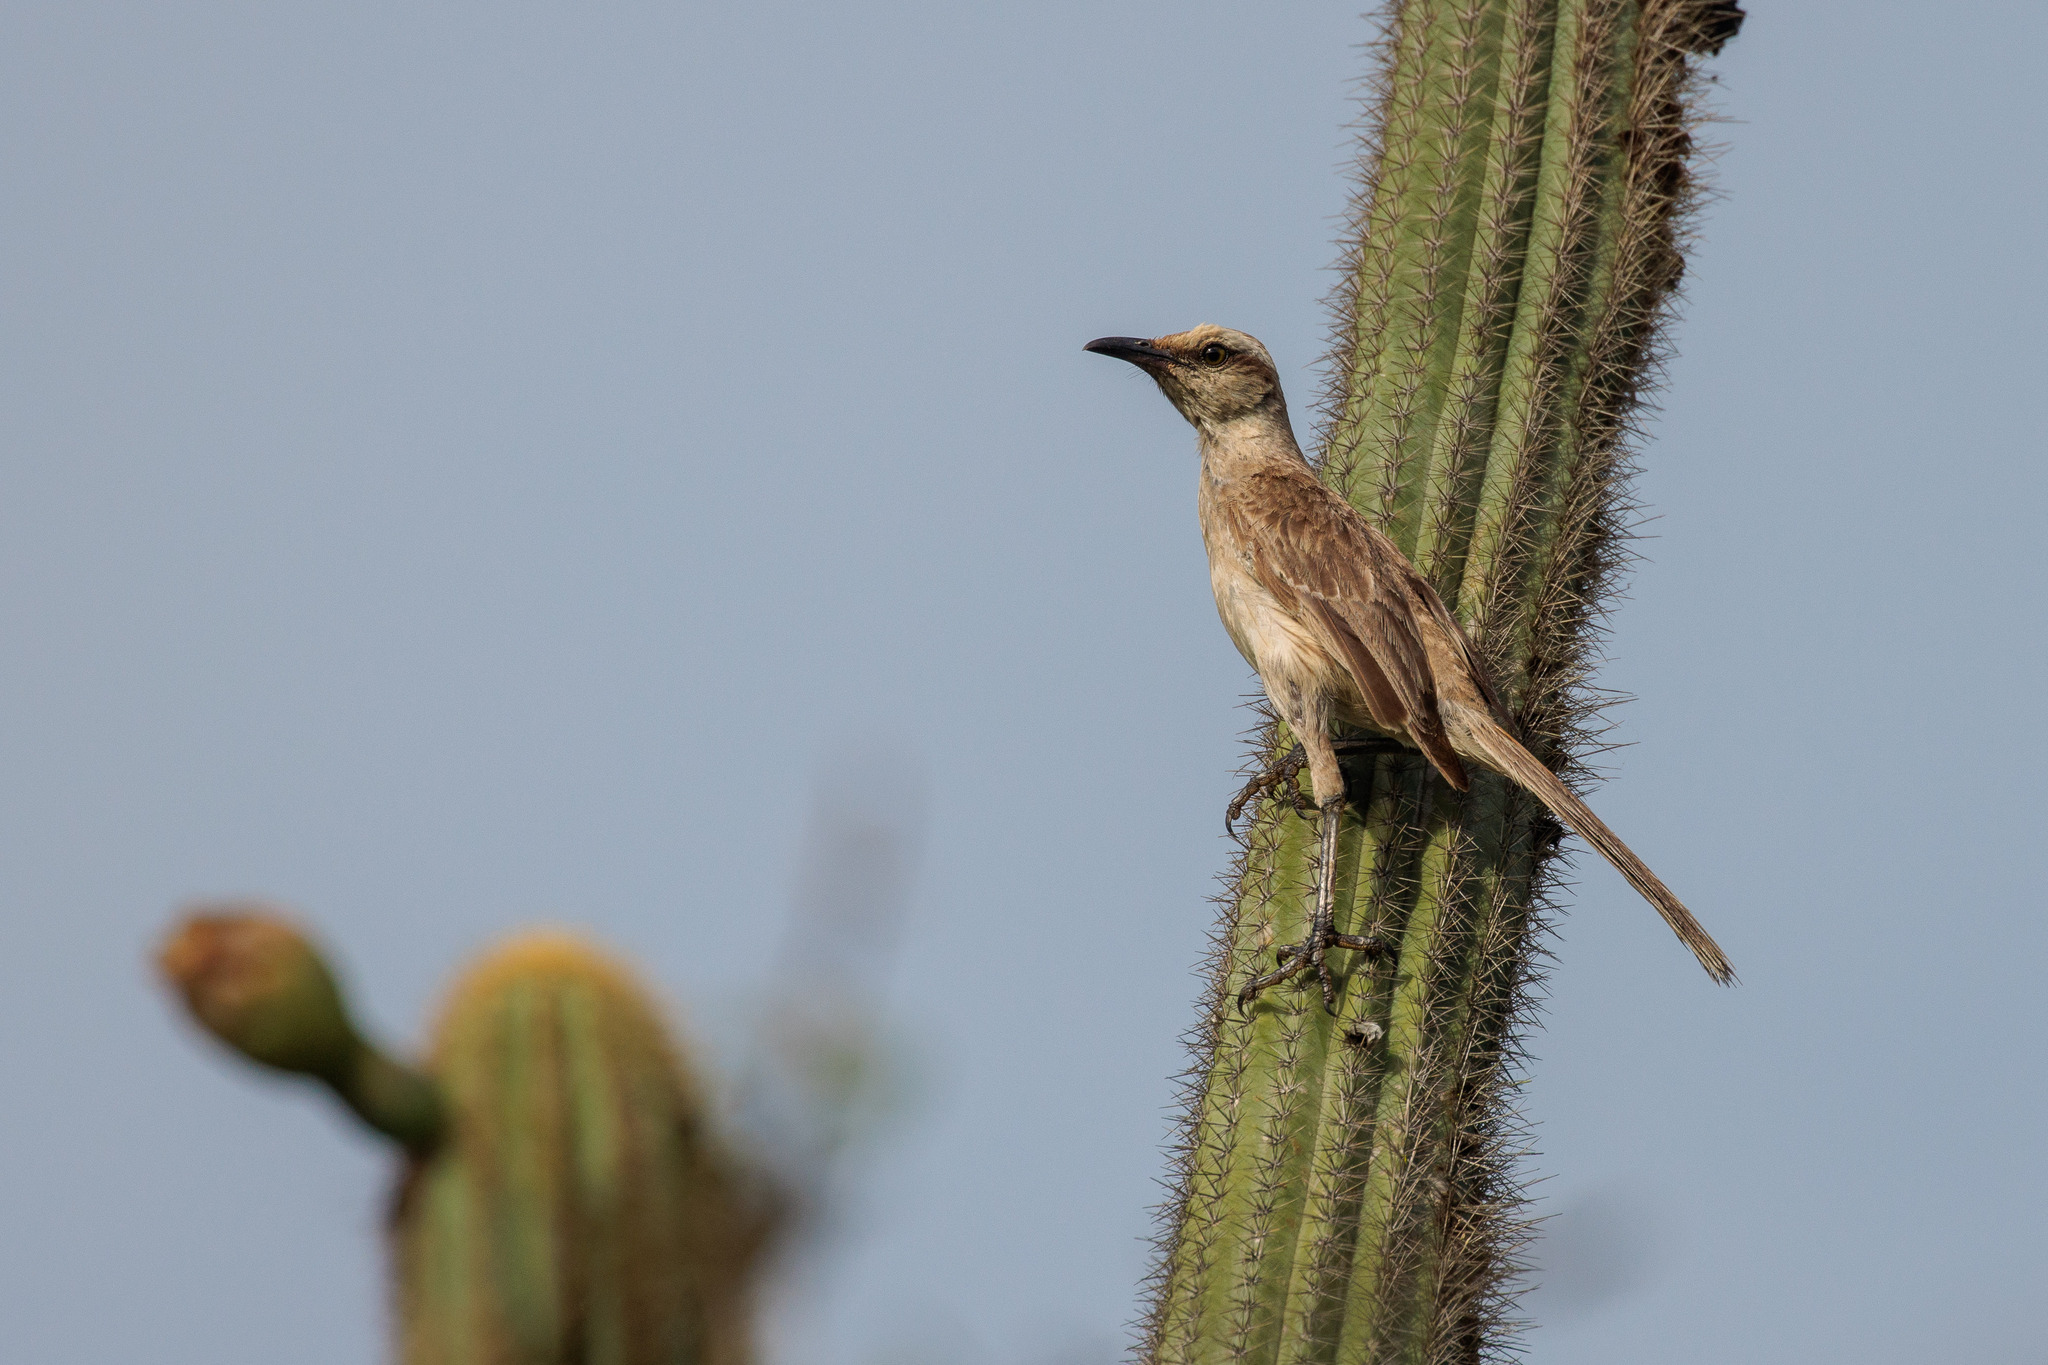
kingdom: Animalia
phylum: Chordata
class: Aves
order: Passeriformes
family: Mimidae
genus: Mimus
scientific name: Mimus saturninus
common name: Chalk-browed mockingbird
